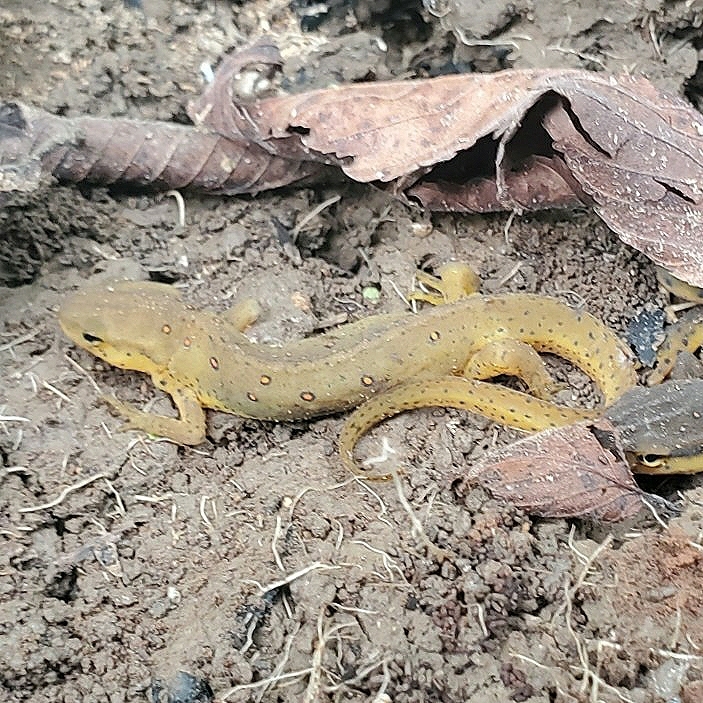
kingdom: Animalia
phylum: Chordata
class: Amphibia
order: Caudata
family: Salamandridae
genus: Notophthalmus
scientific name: Notophthalmus viridescens
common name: Eastern newt
